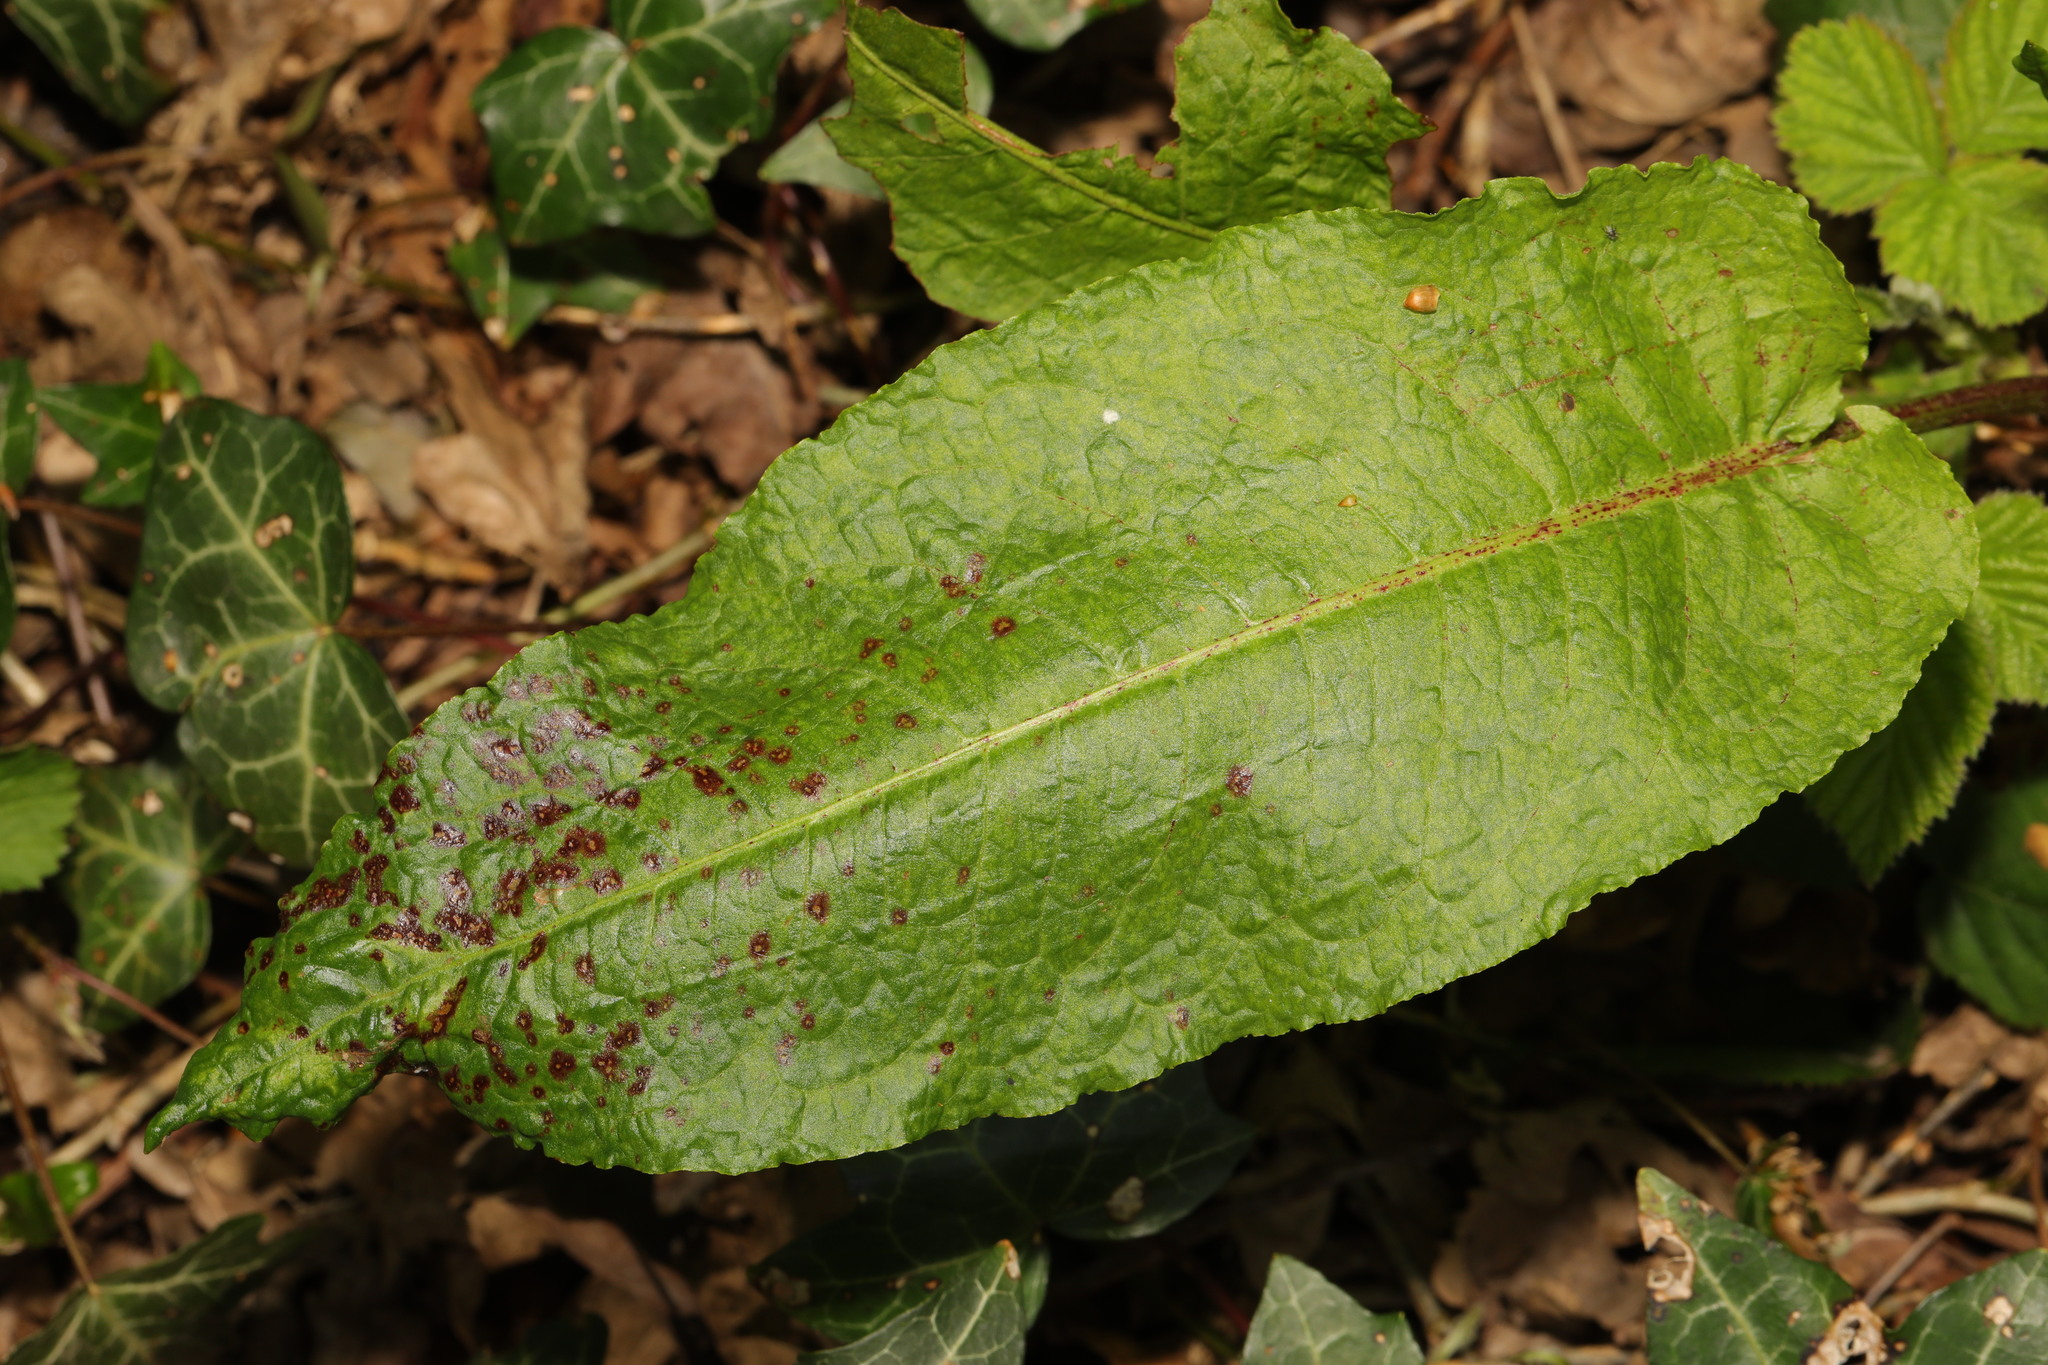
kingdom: Plantae
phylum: Tracheophyta
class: Magnoliopsida
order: Caryophyllales
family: Polygonaceae
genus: Rumex
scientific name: Rumex obtusifolius
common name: Bitter dock
